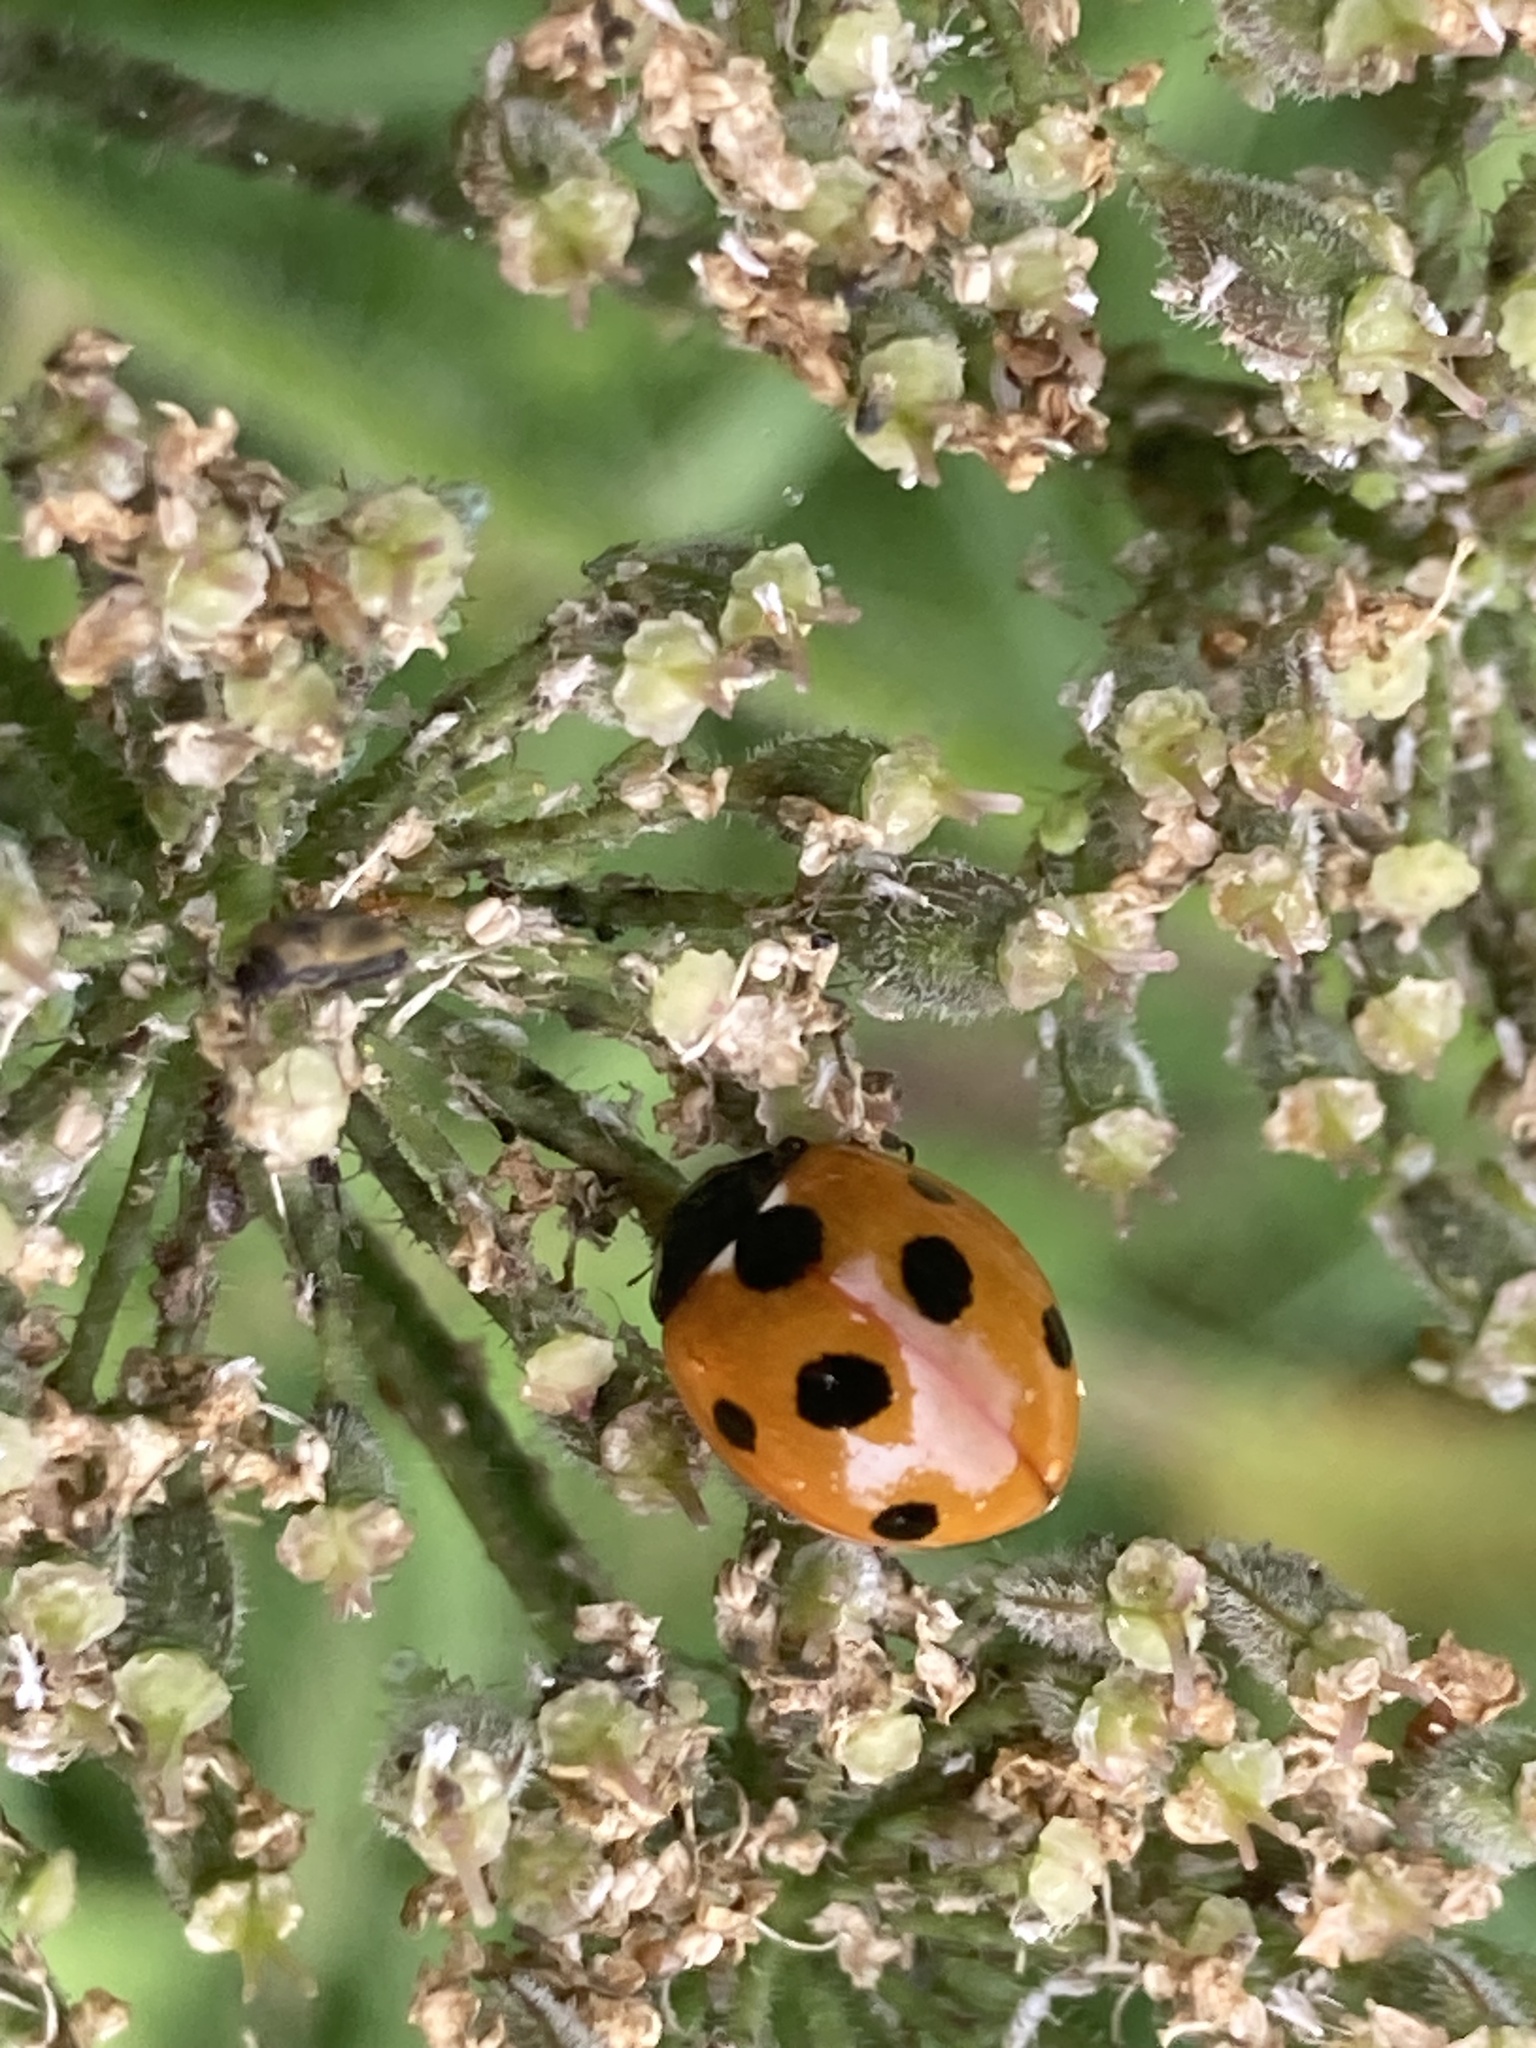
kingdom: Animalia
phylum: Arthropoda
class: Insecta
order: Coleoptera
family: Coccinellidae
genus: Coccinella
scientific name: Coccinella septempunctata
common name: Sevenspotted lady beetle
